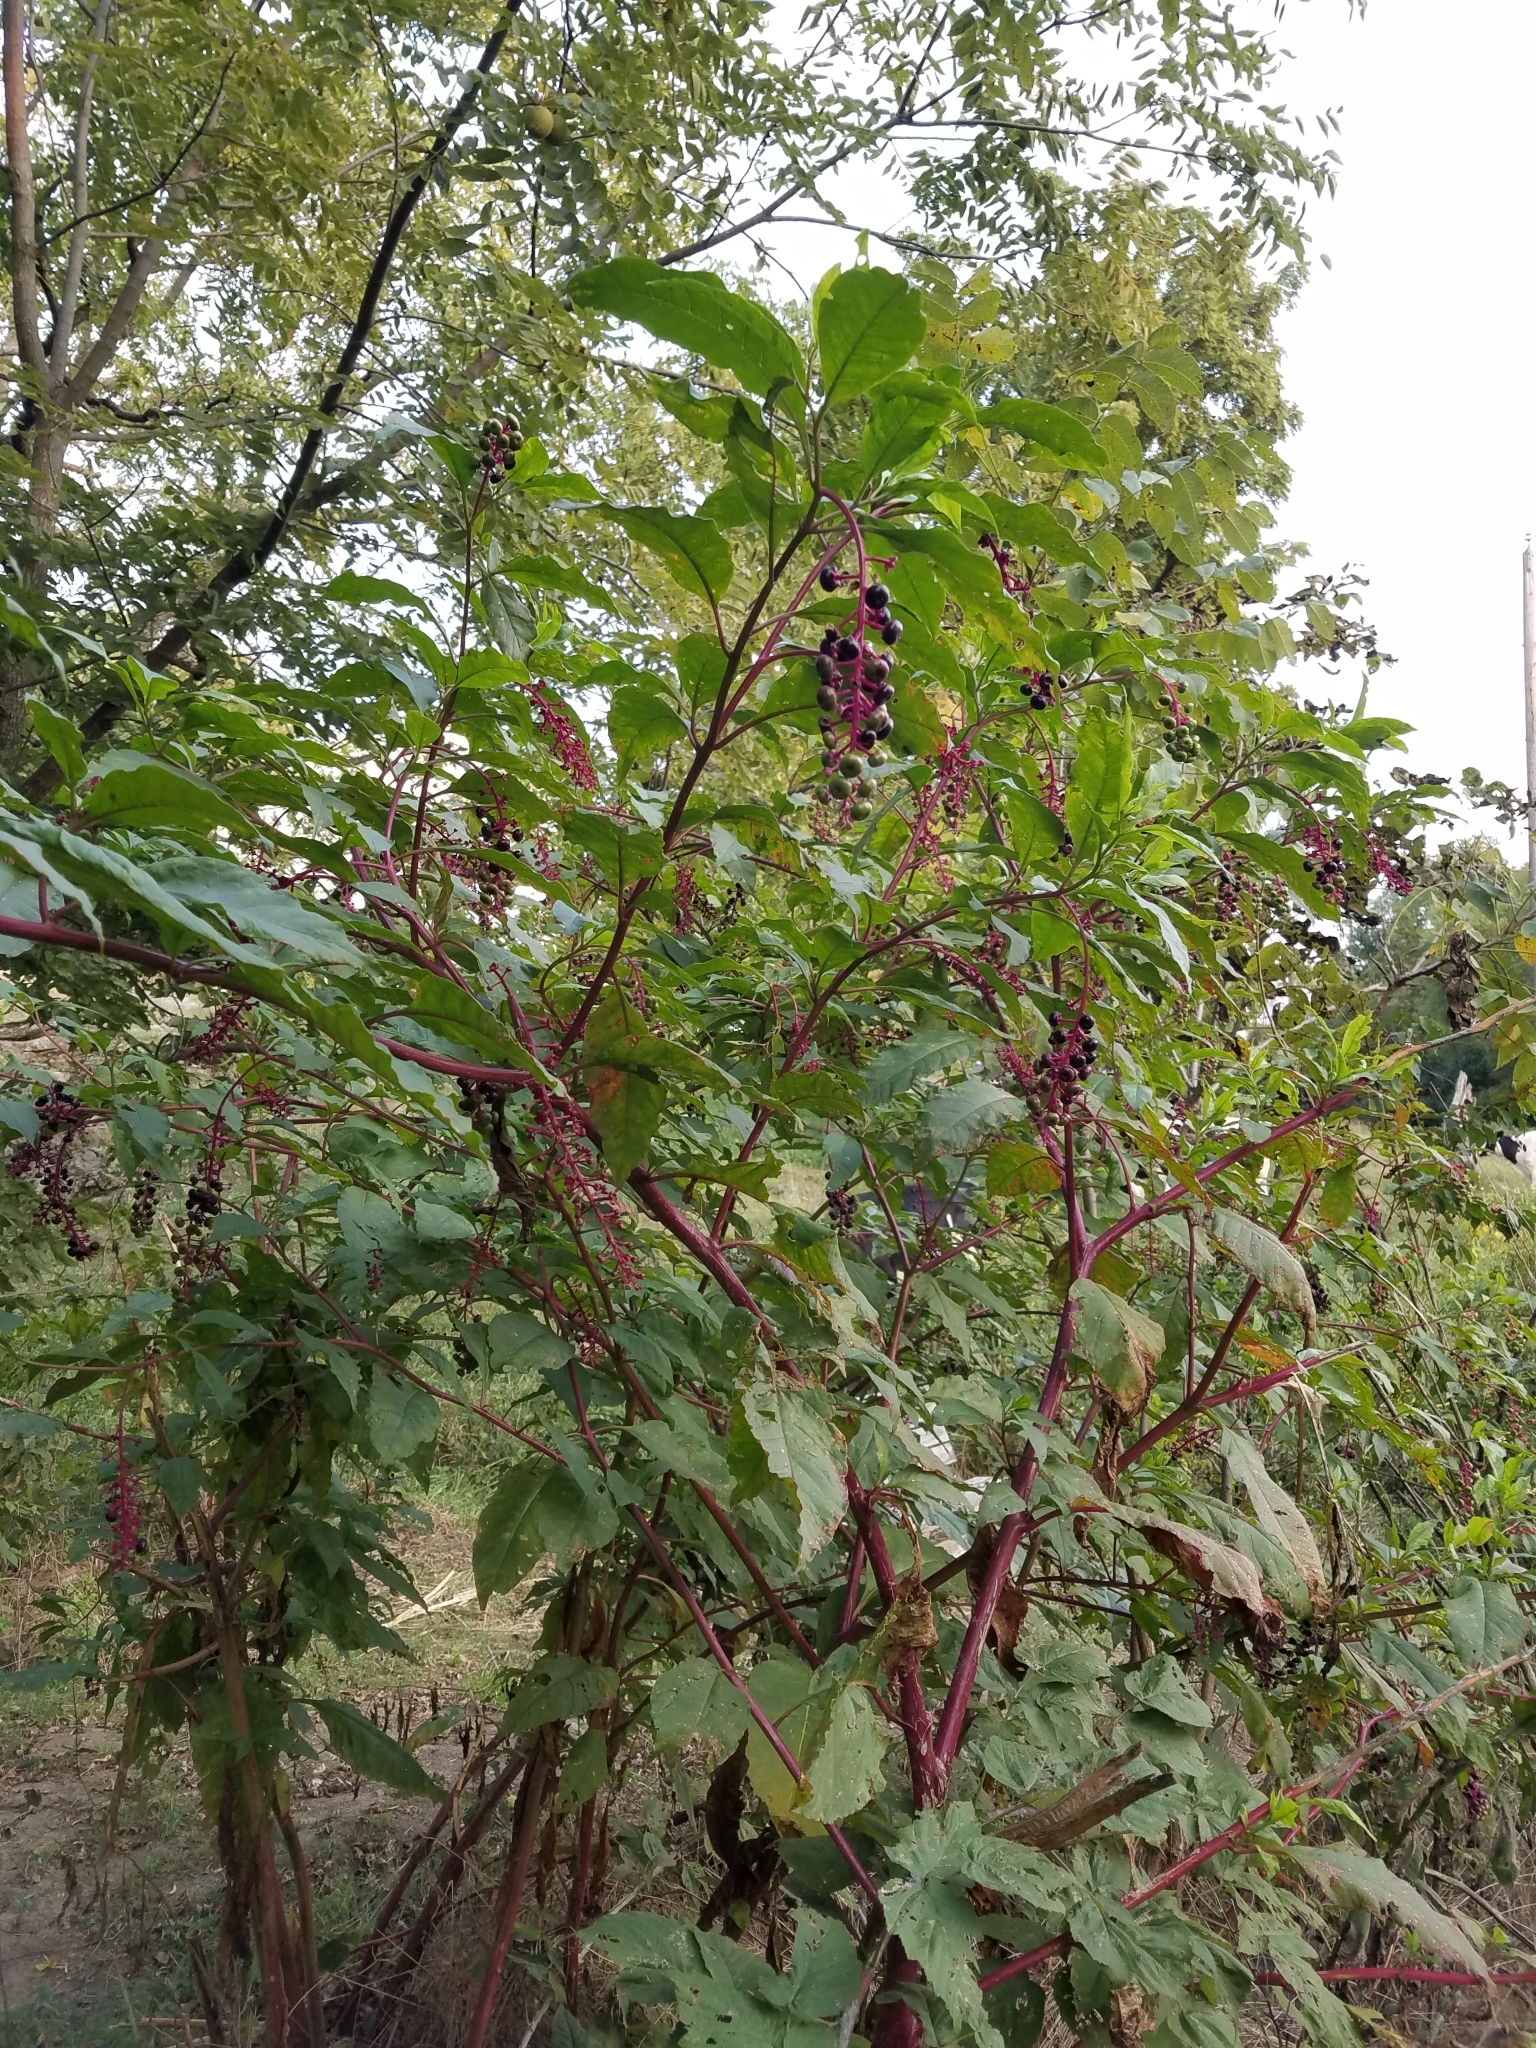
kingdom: Plantae
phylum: Tracheophyta
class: Magnoliopsida
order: Caryophyllales
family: Phytolaccaceae
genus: Phytolacca
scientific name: Phytolacca americana
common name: American pokeweed
